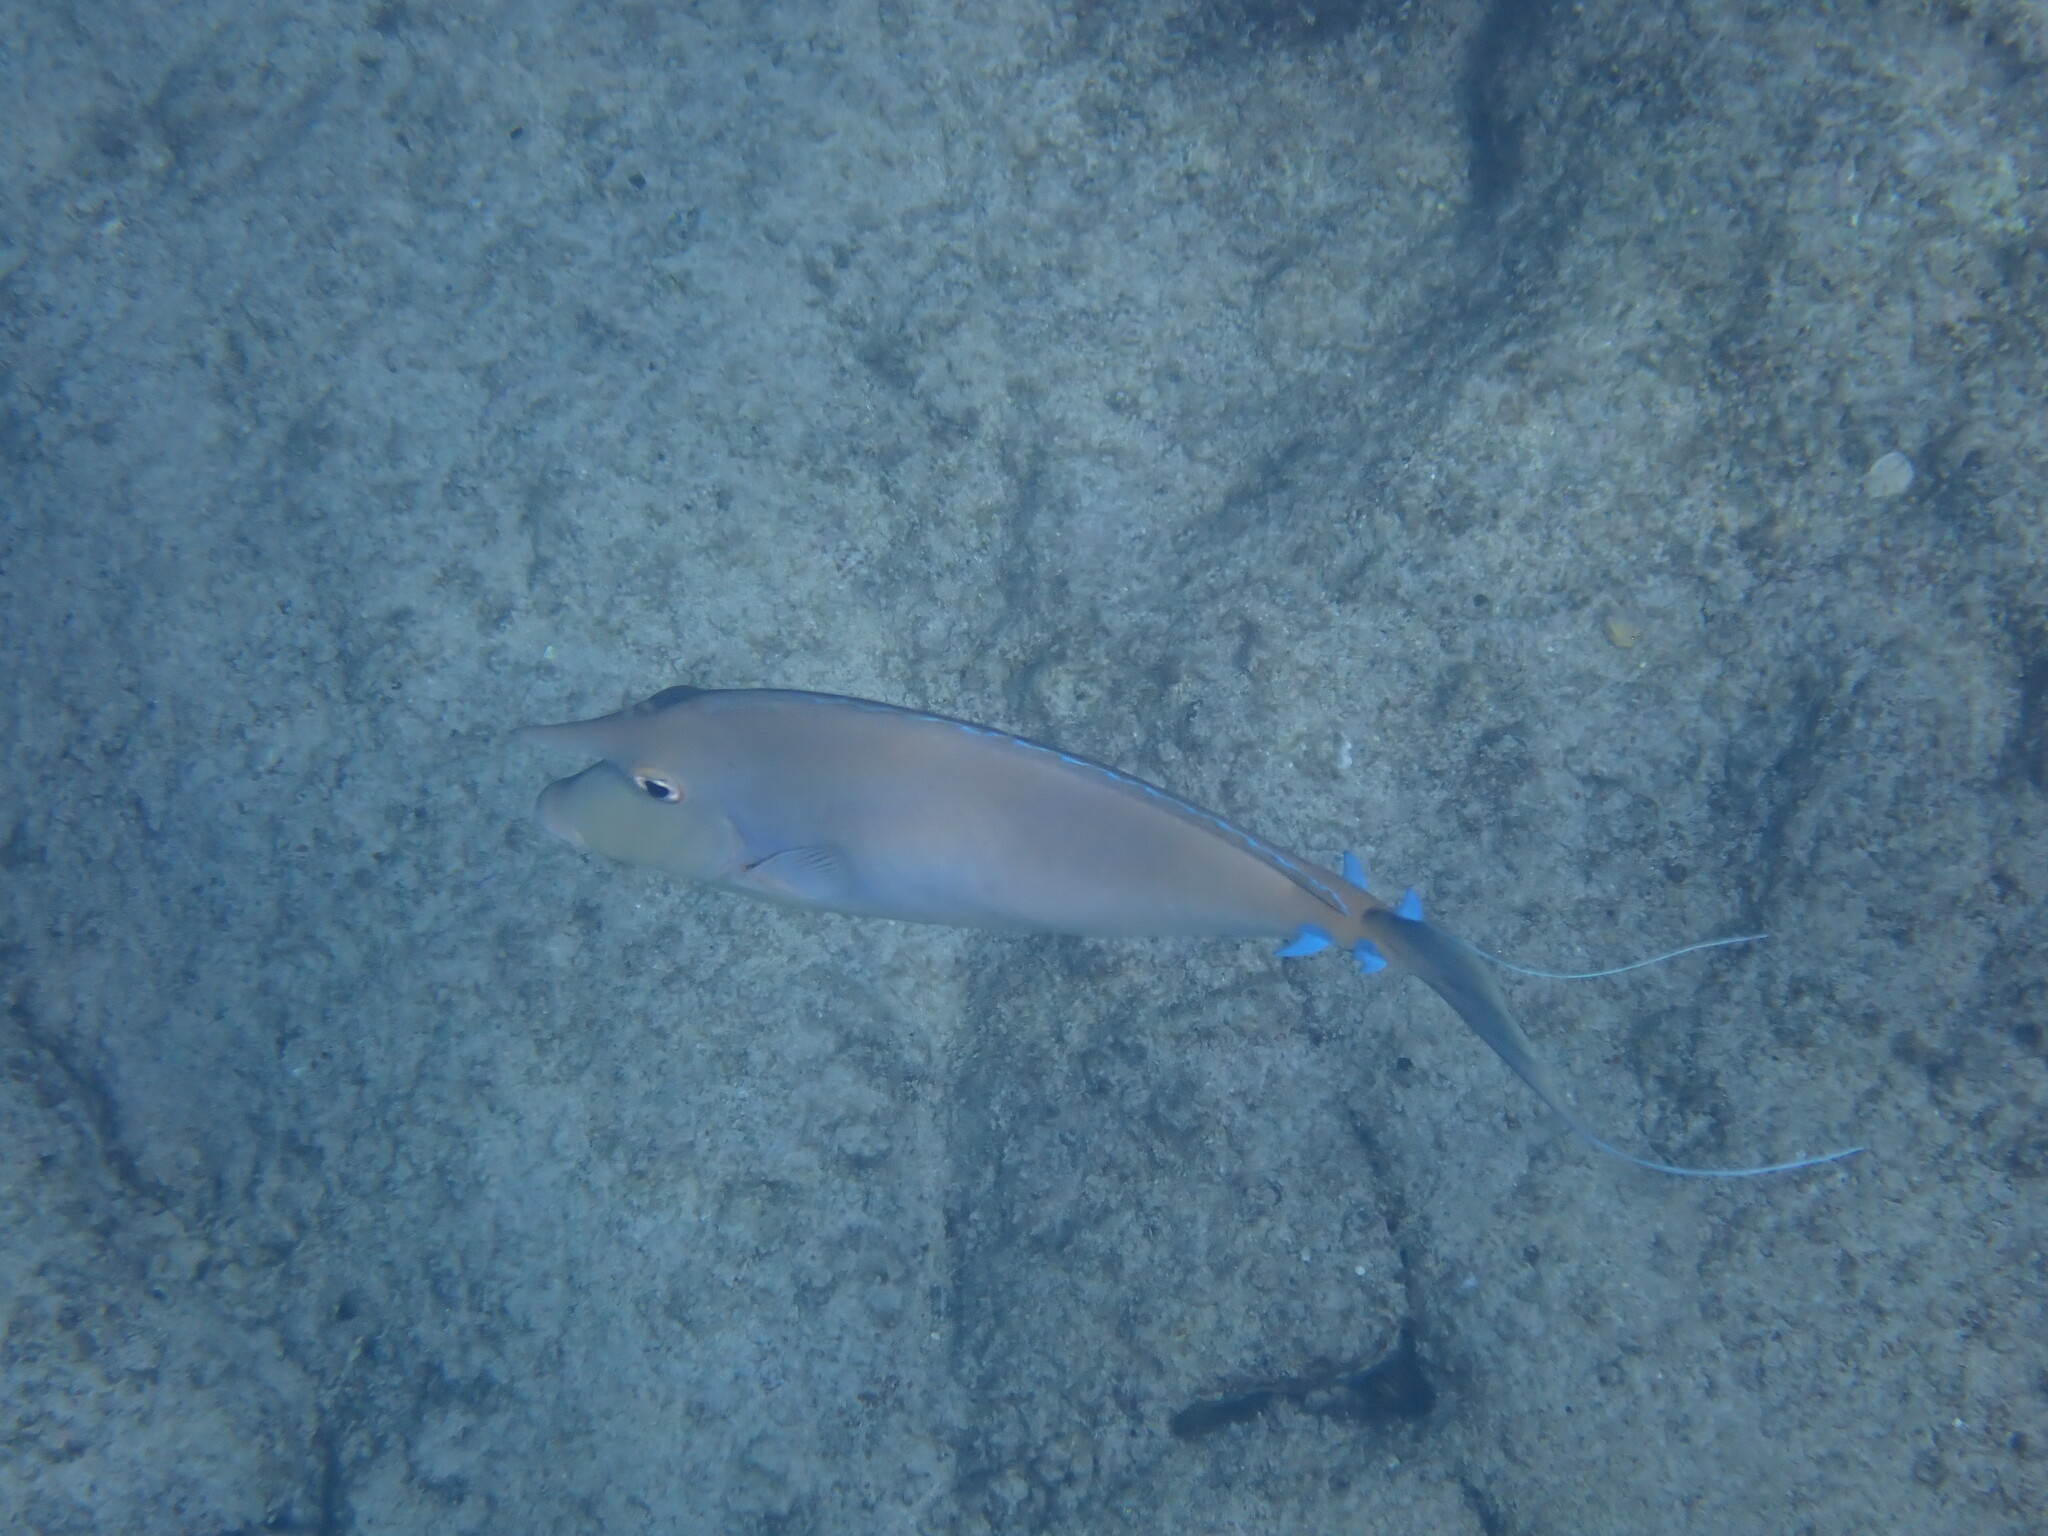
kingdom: Animalia
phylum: Chordata
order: Perciformes
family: Acanthuridae
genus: Naso
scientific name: Naso unicornis
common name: Bluespine unicornfish
